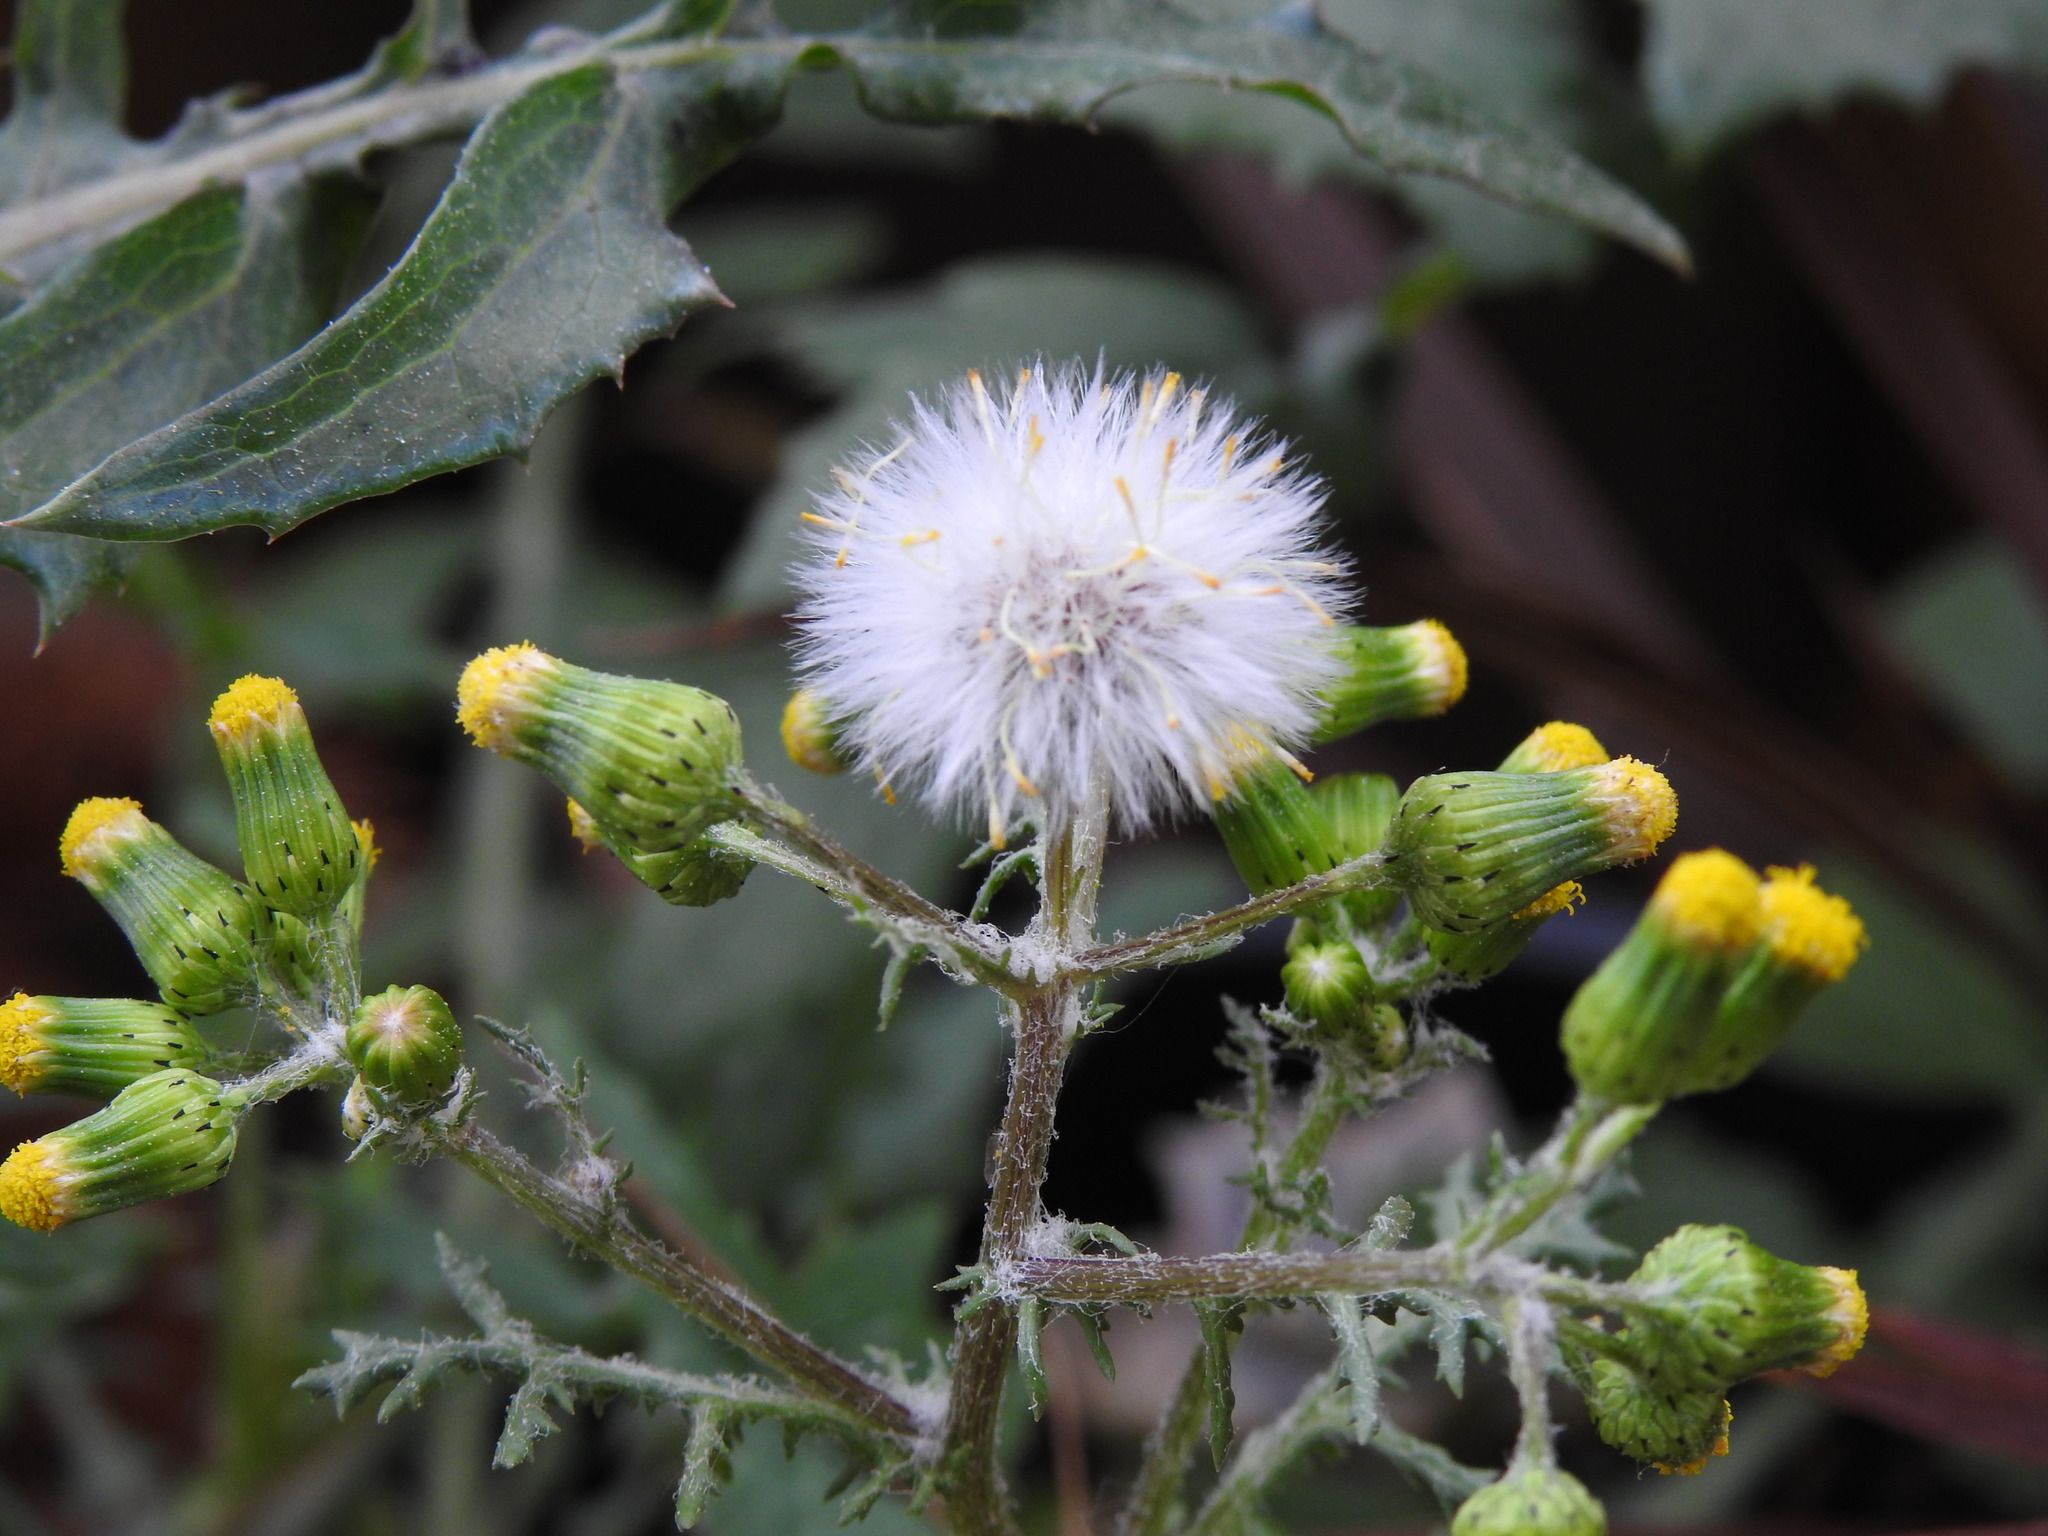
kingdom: Plantae
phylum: Tracheophyta
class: Magnoliopsida
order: Asterales
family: Asteraceae
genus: Senecio
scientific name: Senecio vulgaris
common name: Old-man-in-the-spring
